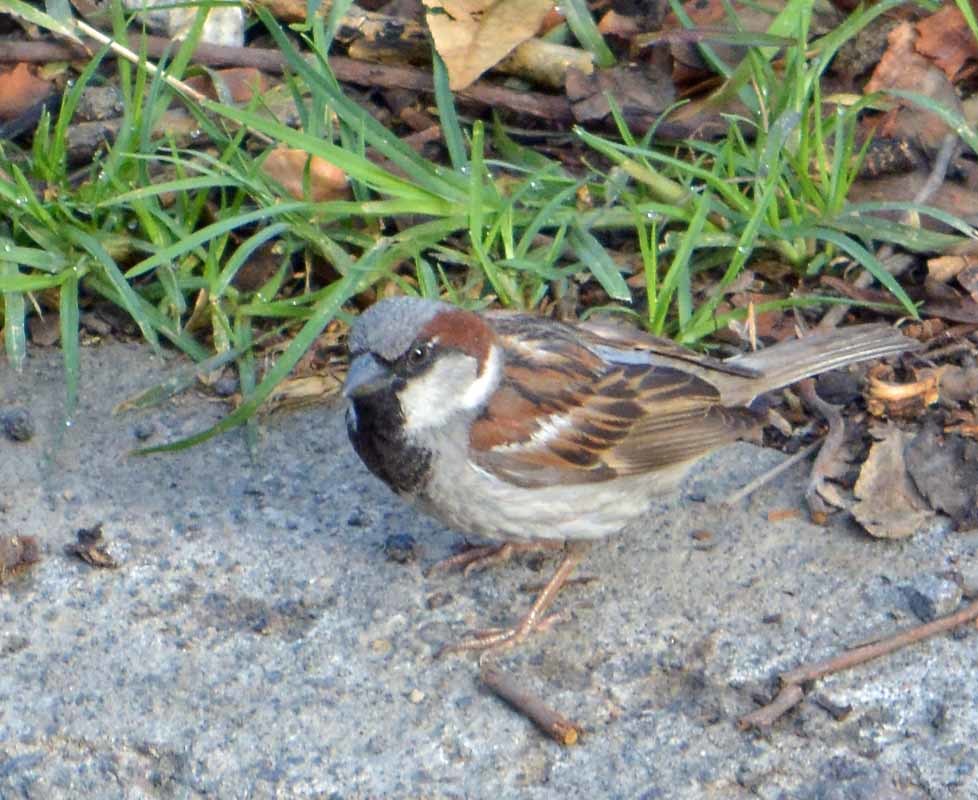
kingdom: Animalia
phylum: Chordata
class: Aves
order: Passeriformes
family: Passeridae
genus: Passer
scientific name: Passer domesticus
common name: House sparrow
